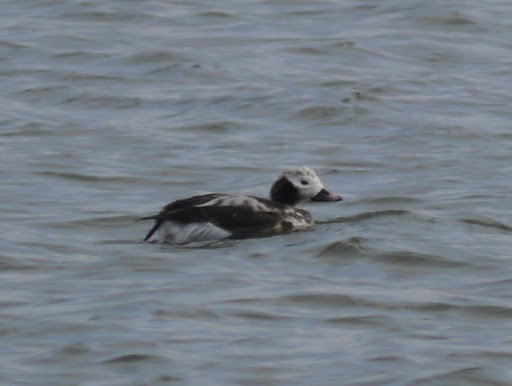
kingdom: Animalia
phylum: Chordata
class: Aves
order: Anseriformes
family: Anatidae
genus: Clangula
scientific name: Clangula hyemalis
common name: Long-tailed duck
